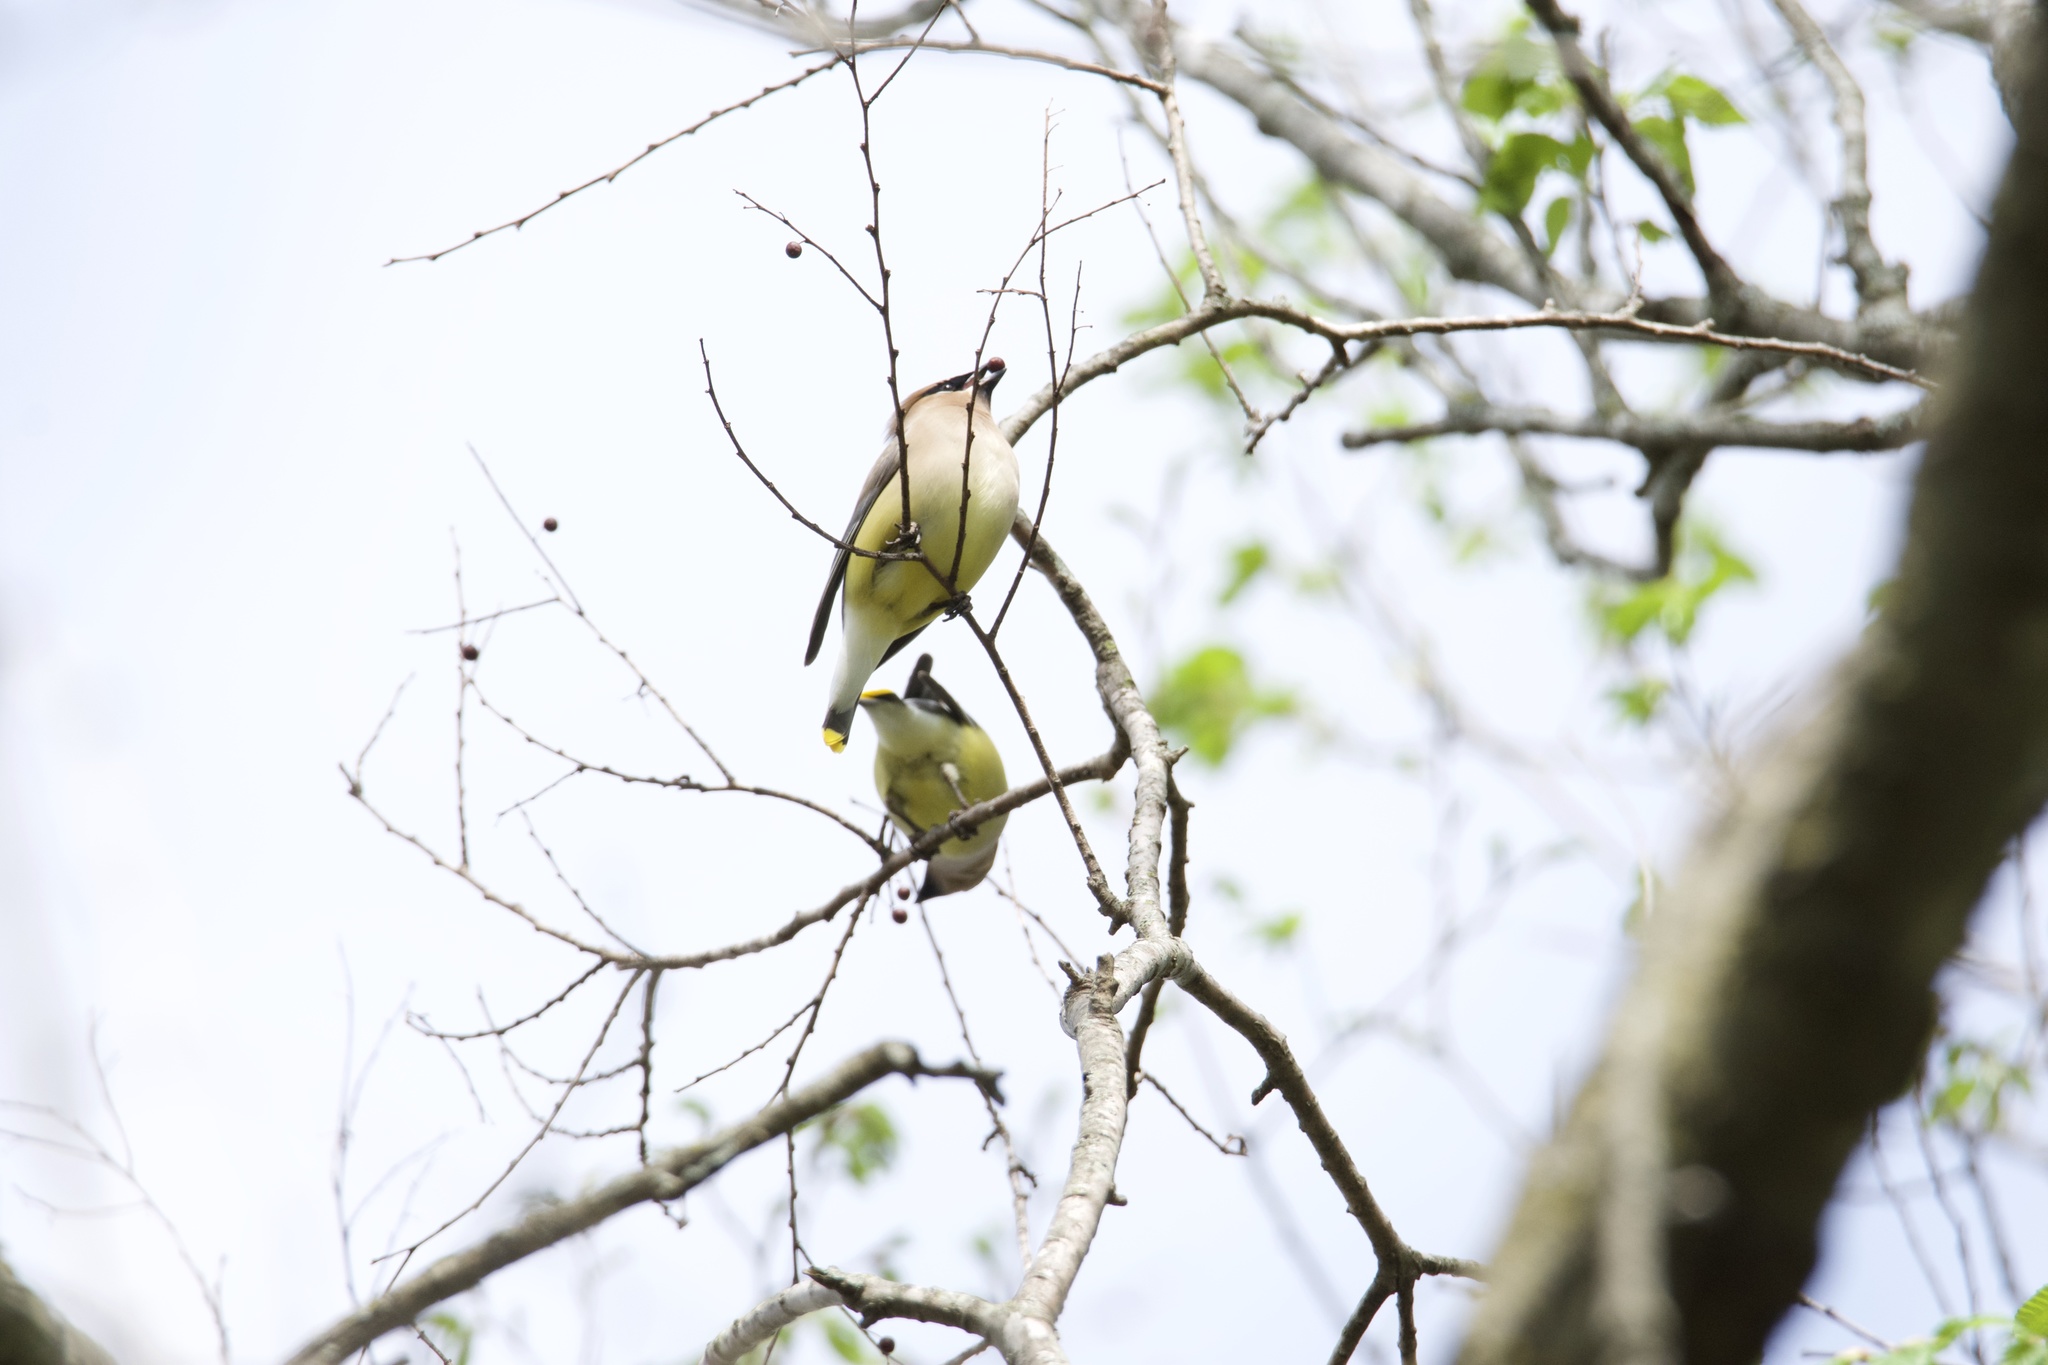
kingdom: Animalia
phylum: Chordata
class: Aves
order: Passeriformes
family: Bombycillidae
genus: Bombycilla
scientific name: Bombycilla cedrorum
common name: Cedar waxwing
